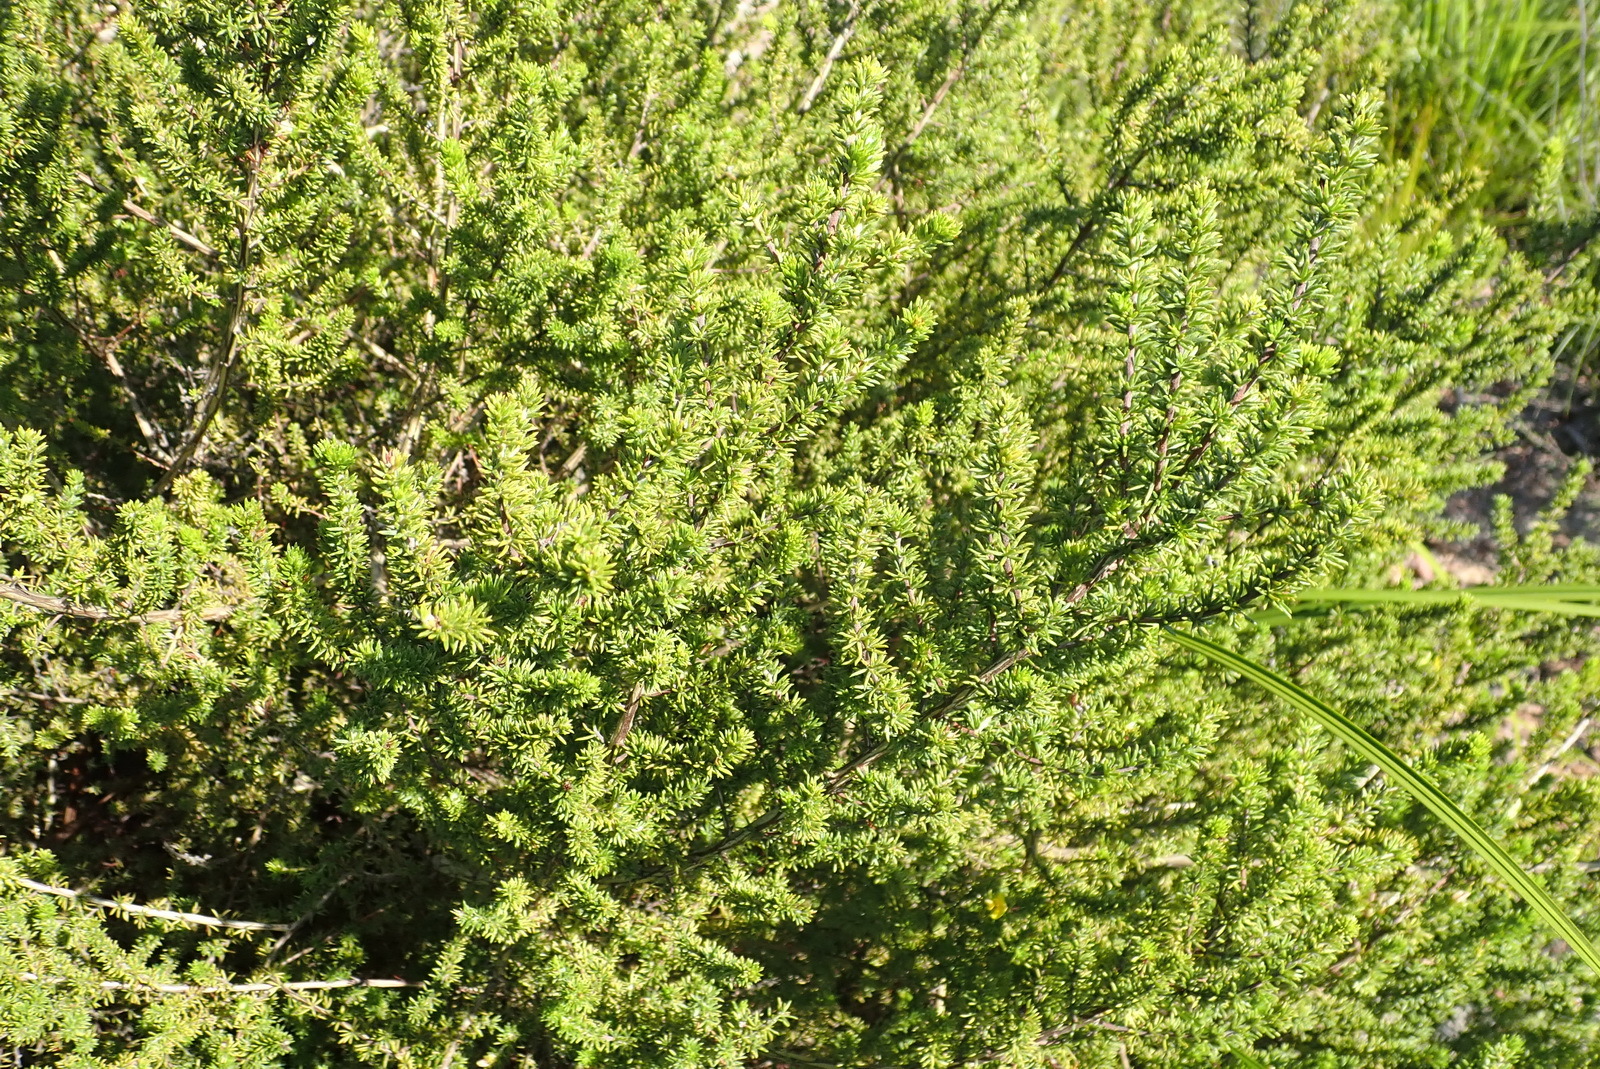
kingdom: Plantae
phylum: Tracheophyta
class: Magnoliopsida
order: Fabales
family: Fabaceae
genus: Aspalathus
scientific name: Aspalathus opaca
